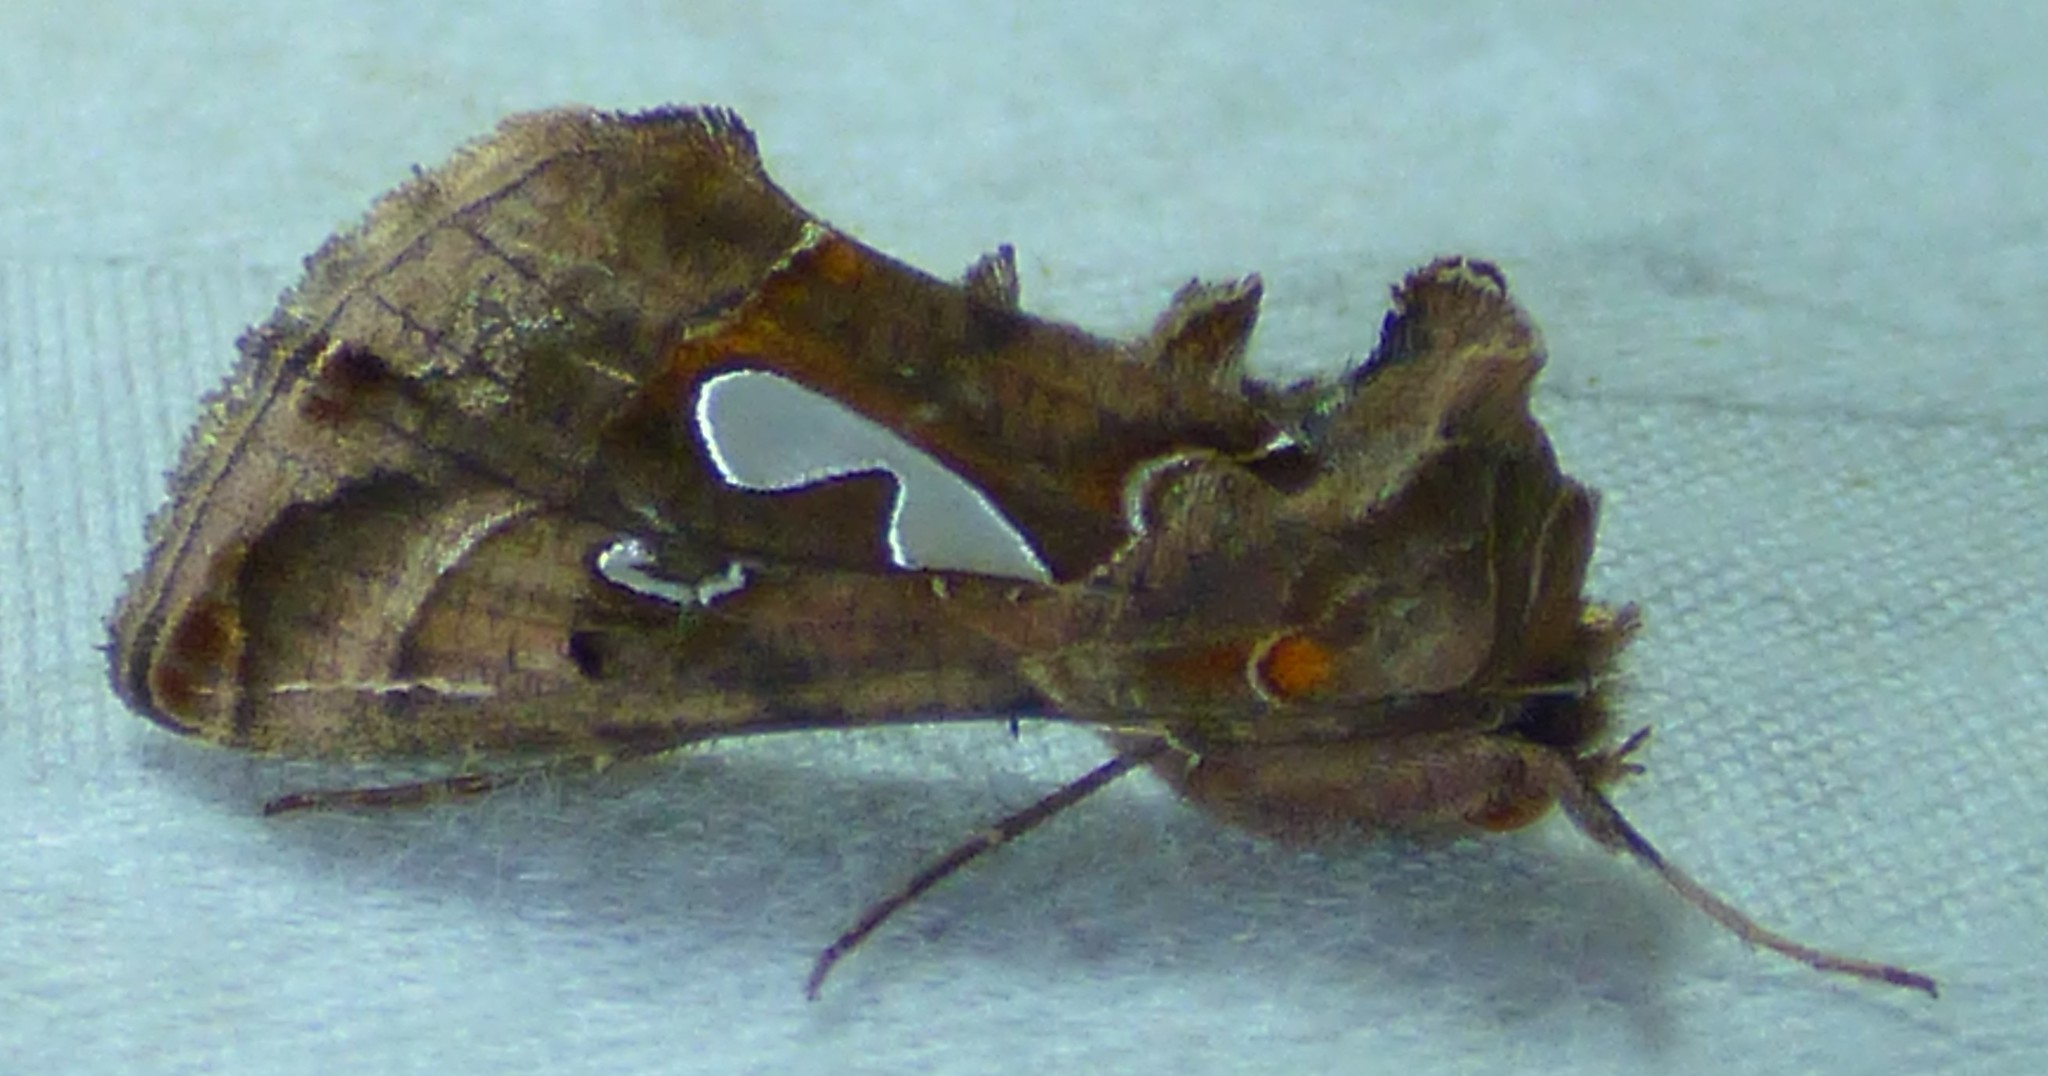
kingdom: Animalia
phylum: Arthropoda
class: Insecta
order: Lepidoptera
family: Noctuidae
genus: Megalographa
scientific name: Megalographa biloba
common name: Cutworm
